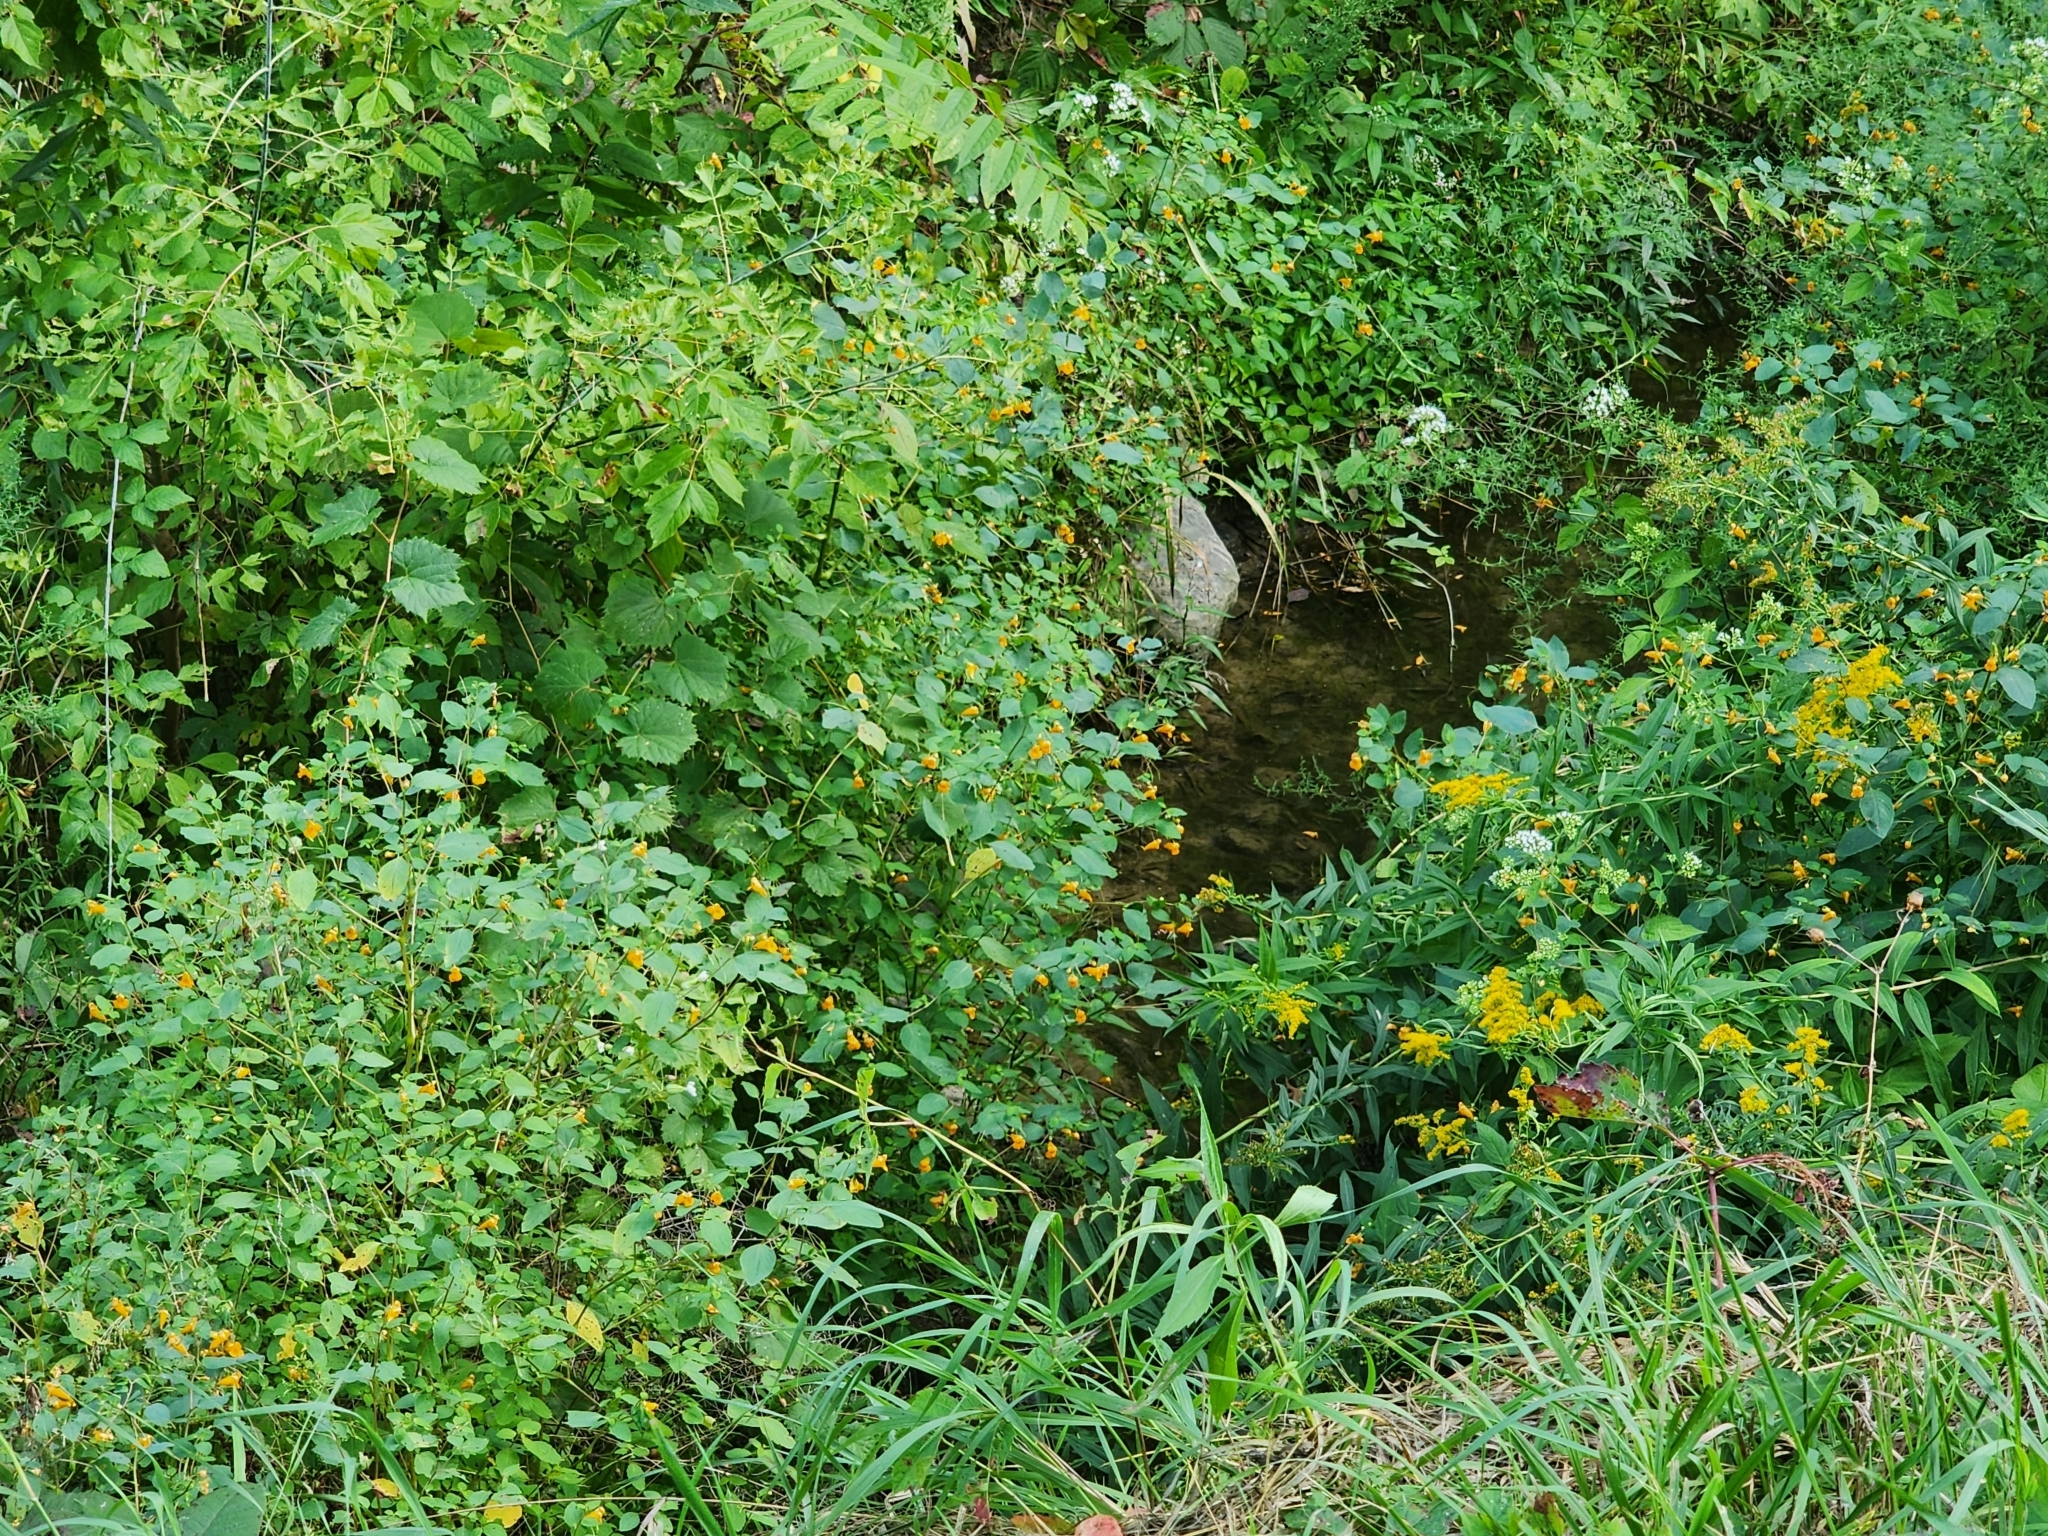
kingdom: Plantae
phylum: Tracheophyta
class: Magnoliopsida
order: Ericales
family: Balsaminaceae
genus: Impatiens
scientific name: Impatiens capensis
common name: Orange balsam
